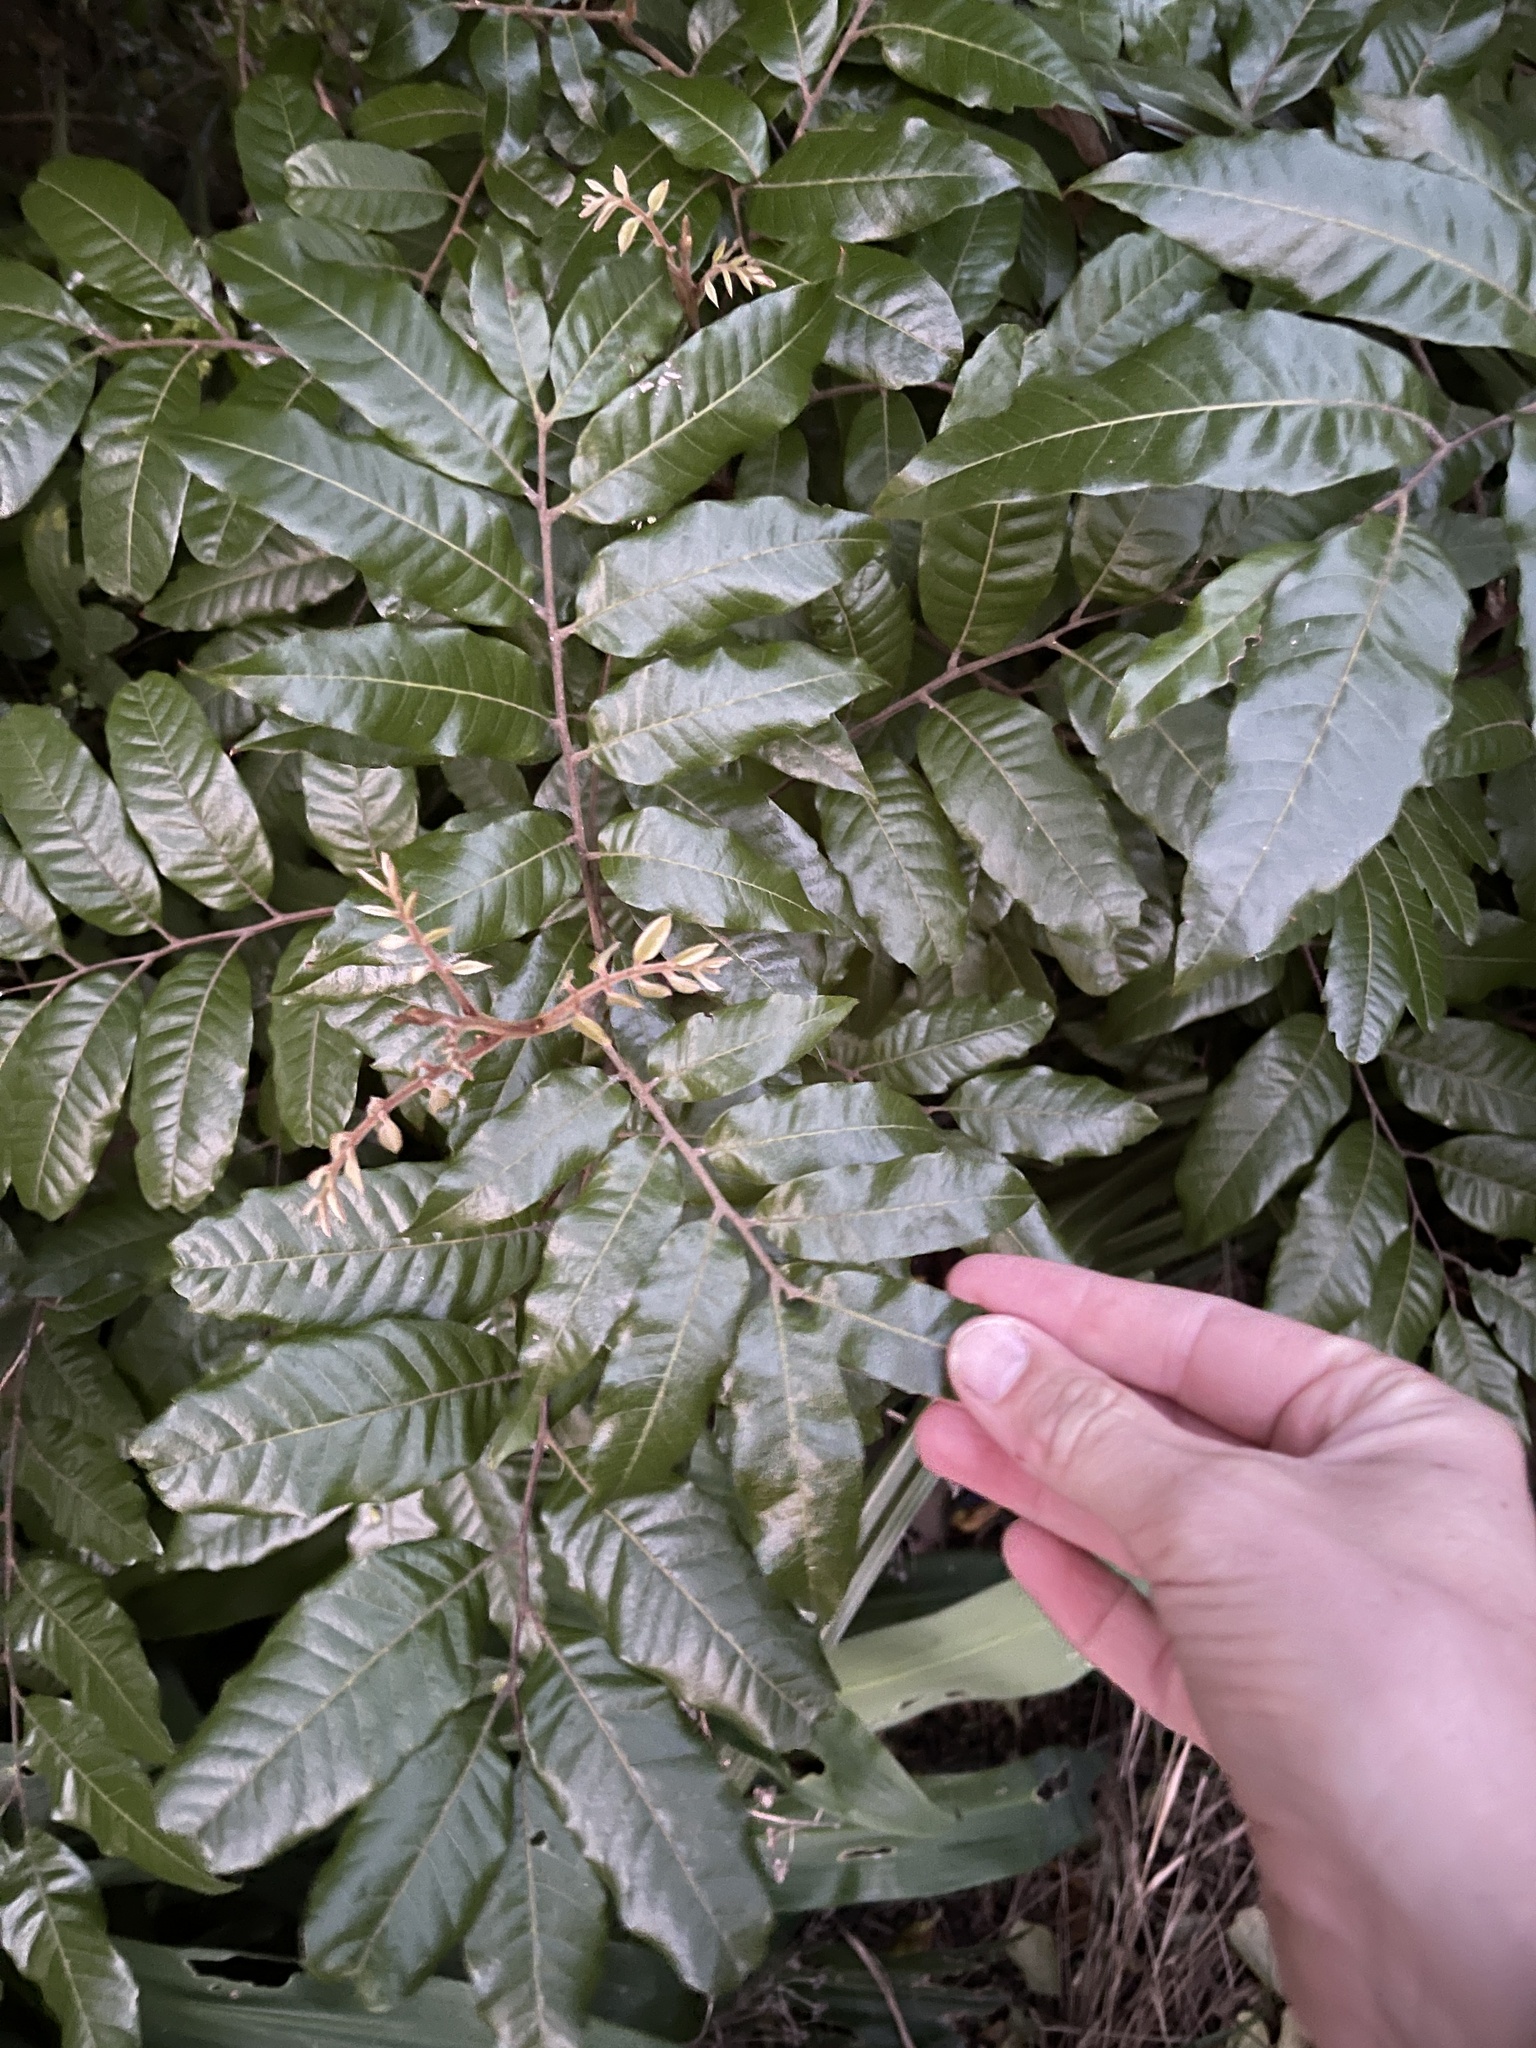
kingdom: Plantae
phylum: Tracheophyta
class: Magnoliopsida
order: Sapindales
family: Sapindaceae
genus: Alectryon
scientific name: Alectryon excelsus
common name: Three kings titoki
